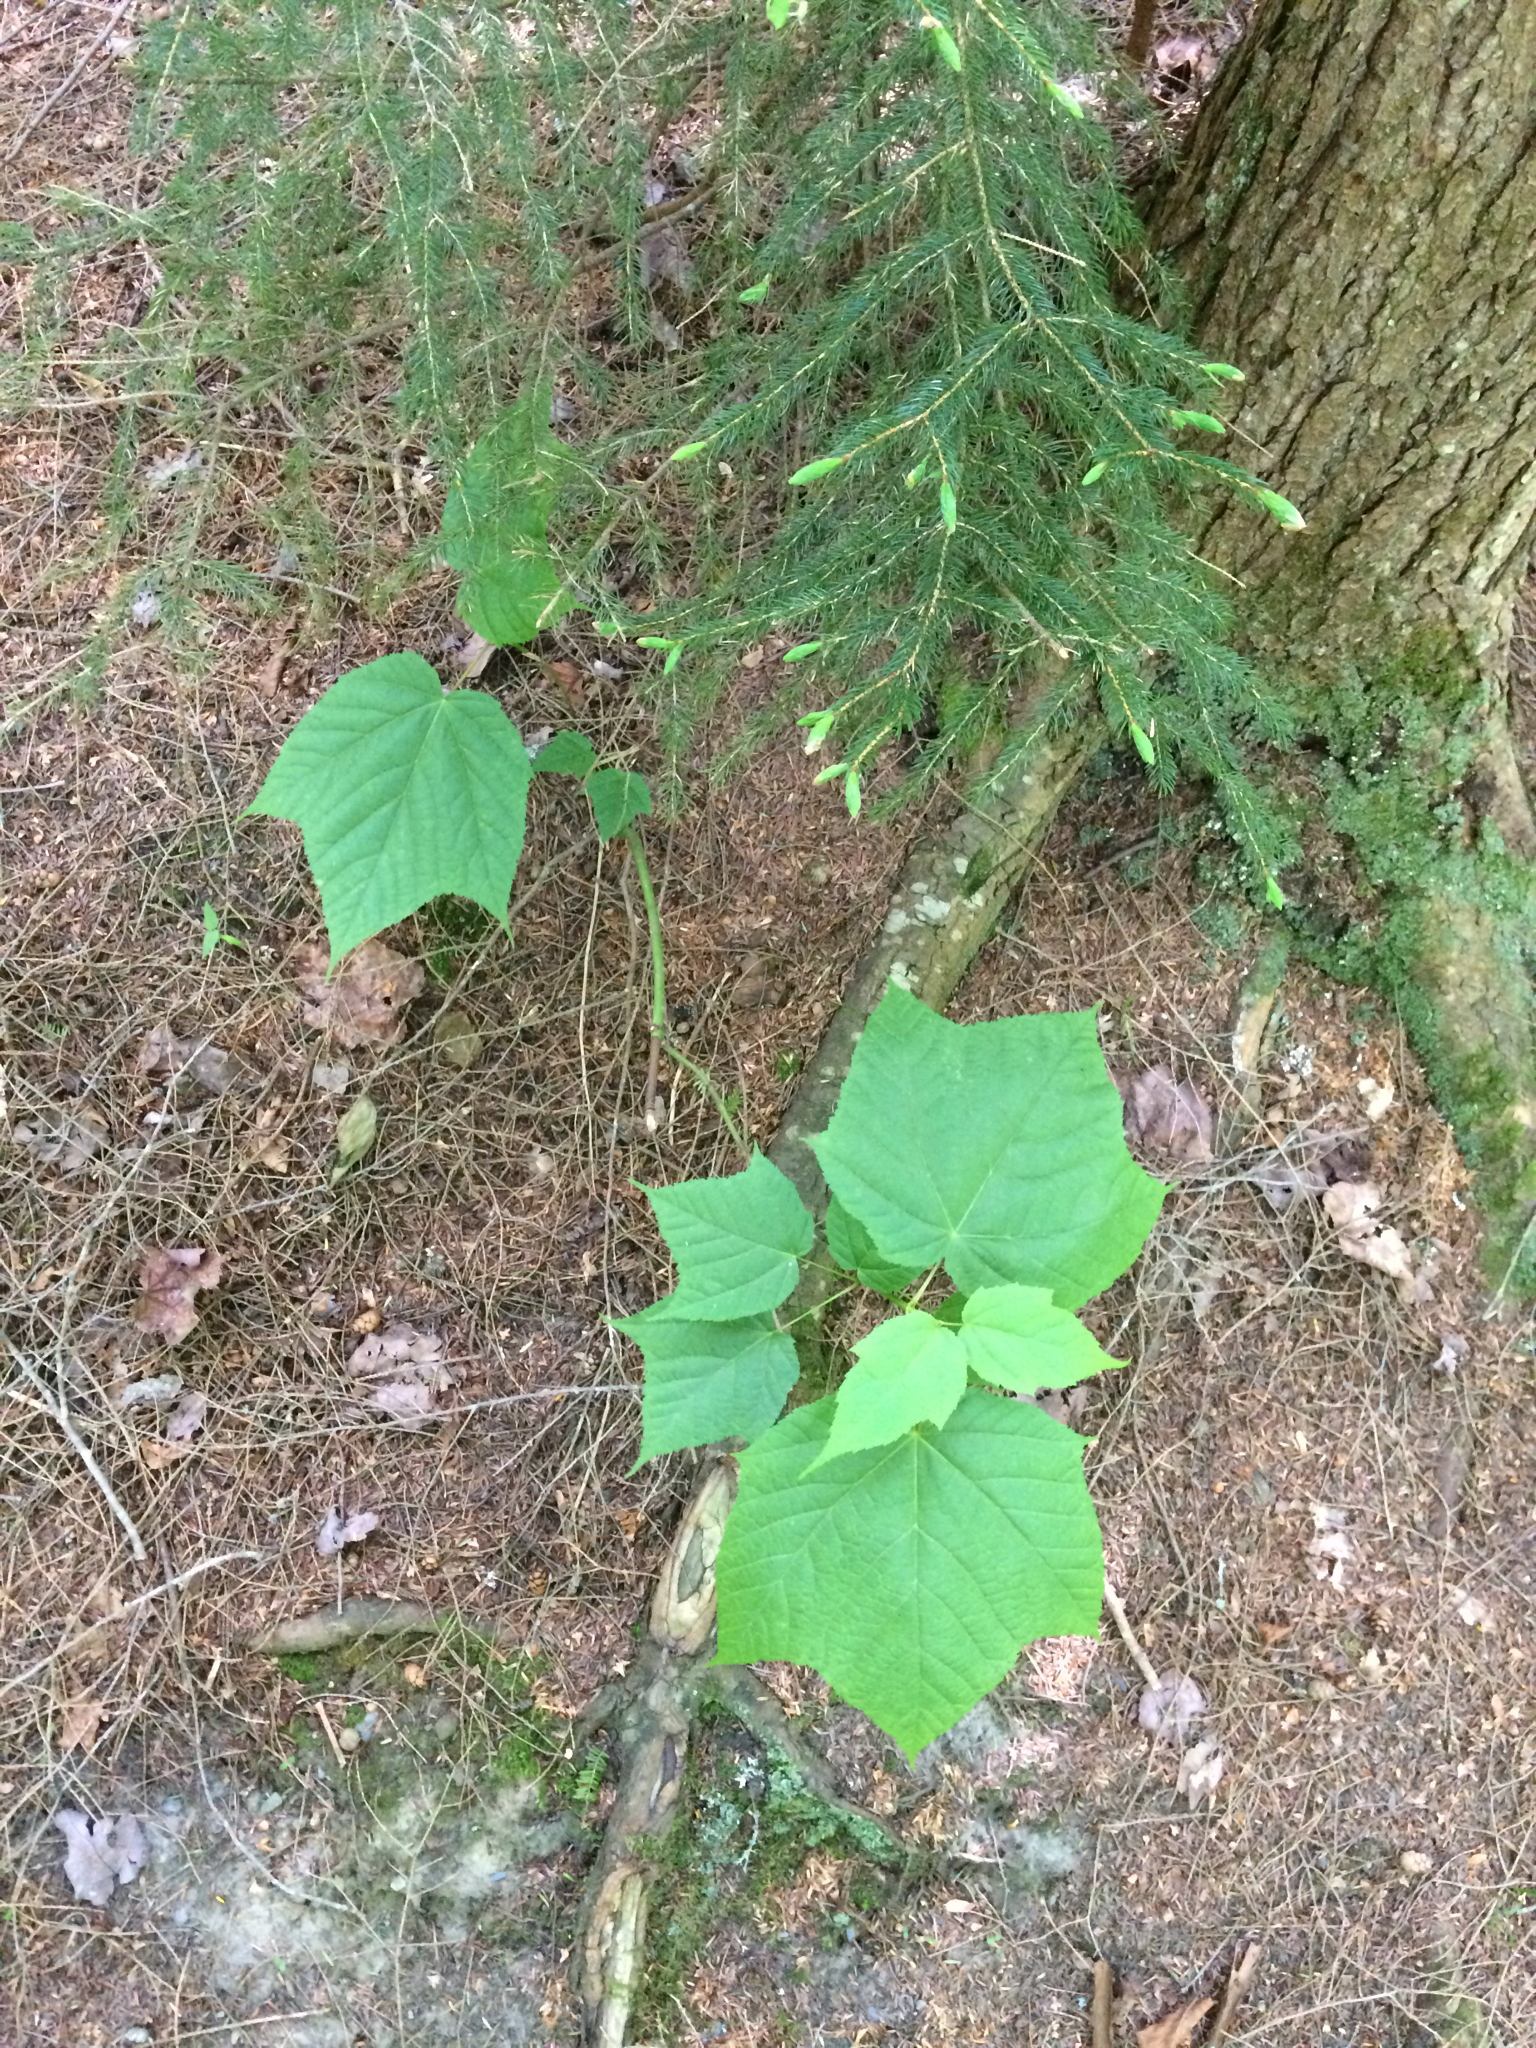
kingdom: Plantae
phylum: Tracheophyta
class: Magnoliopsida
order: Sapindales
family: Sapindaceae
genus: Acer
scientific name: Acer pensylvanicum
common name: Moosewood
